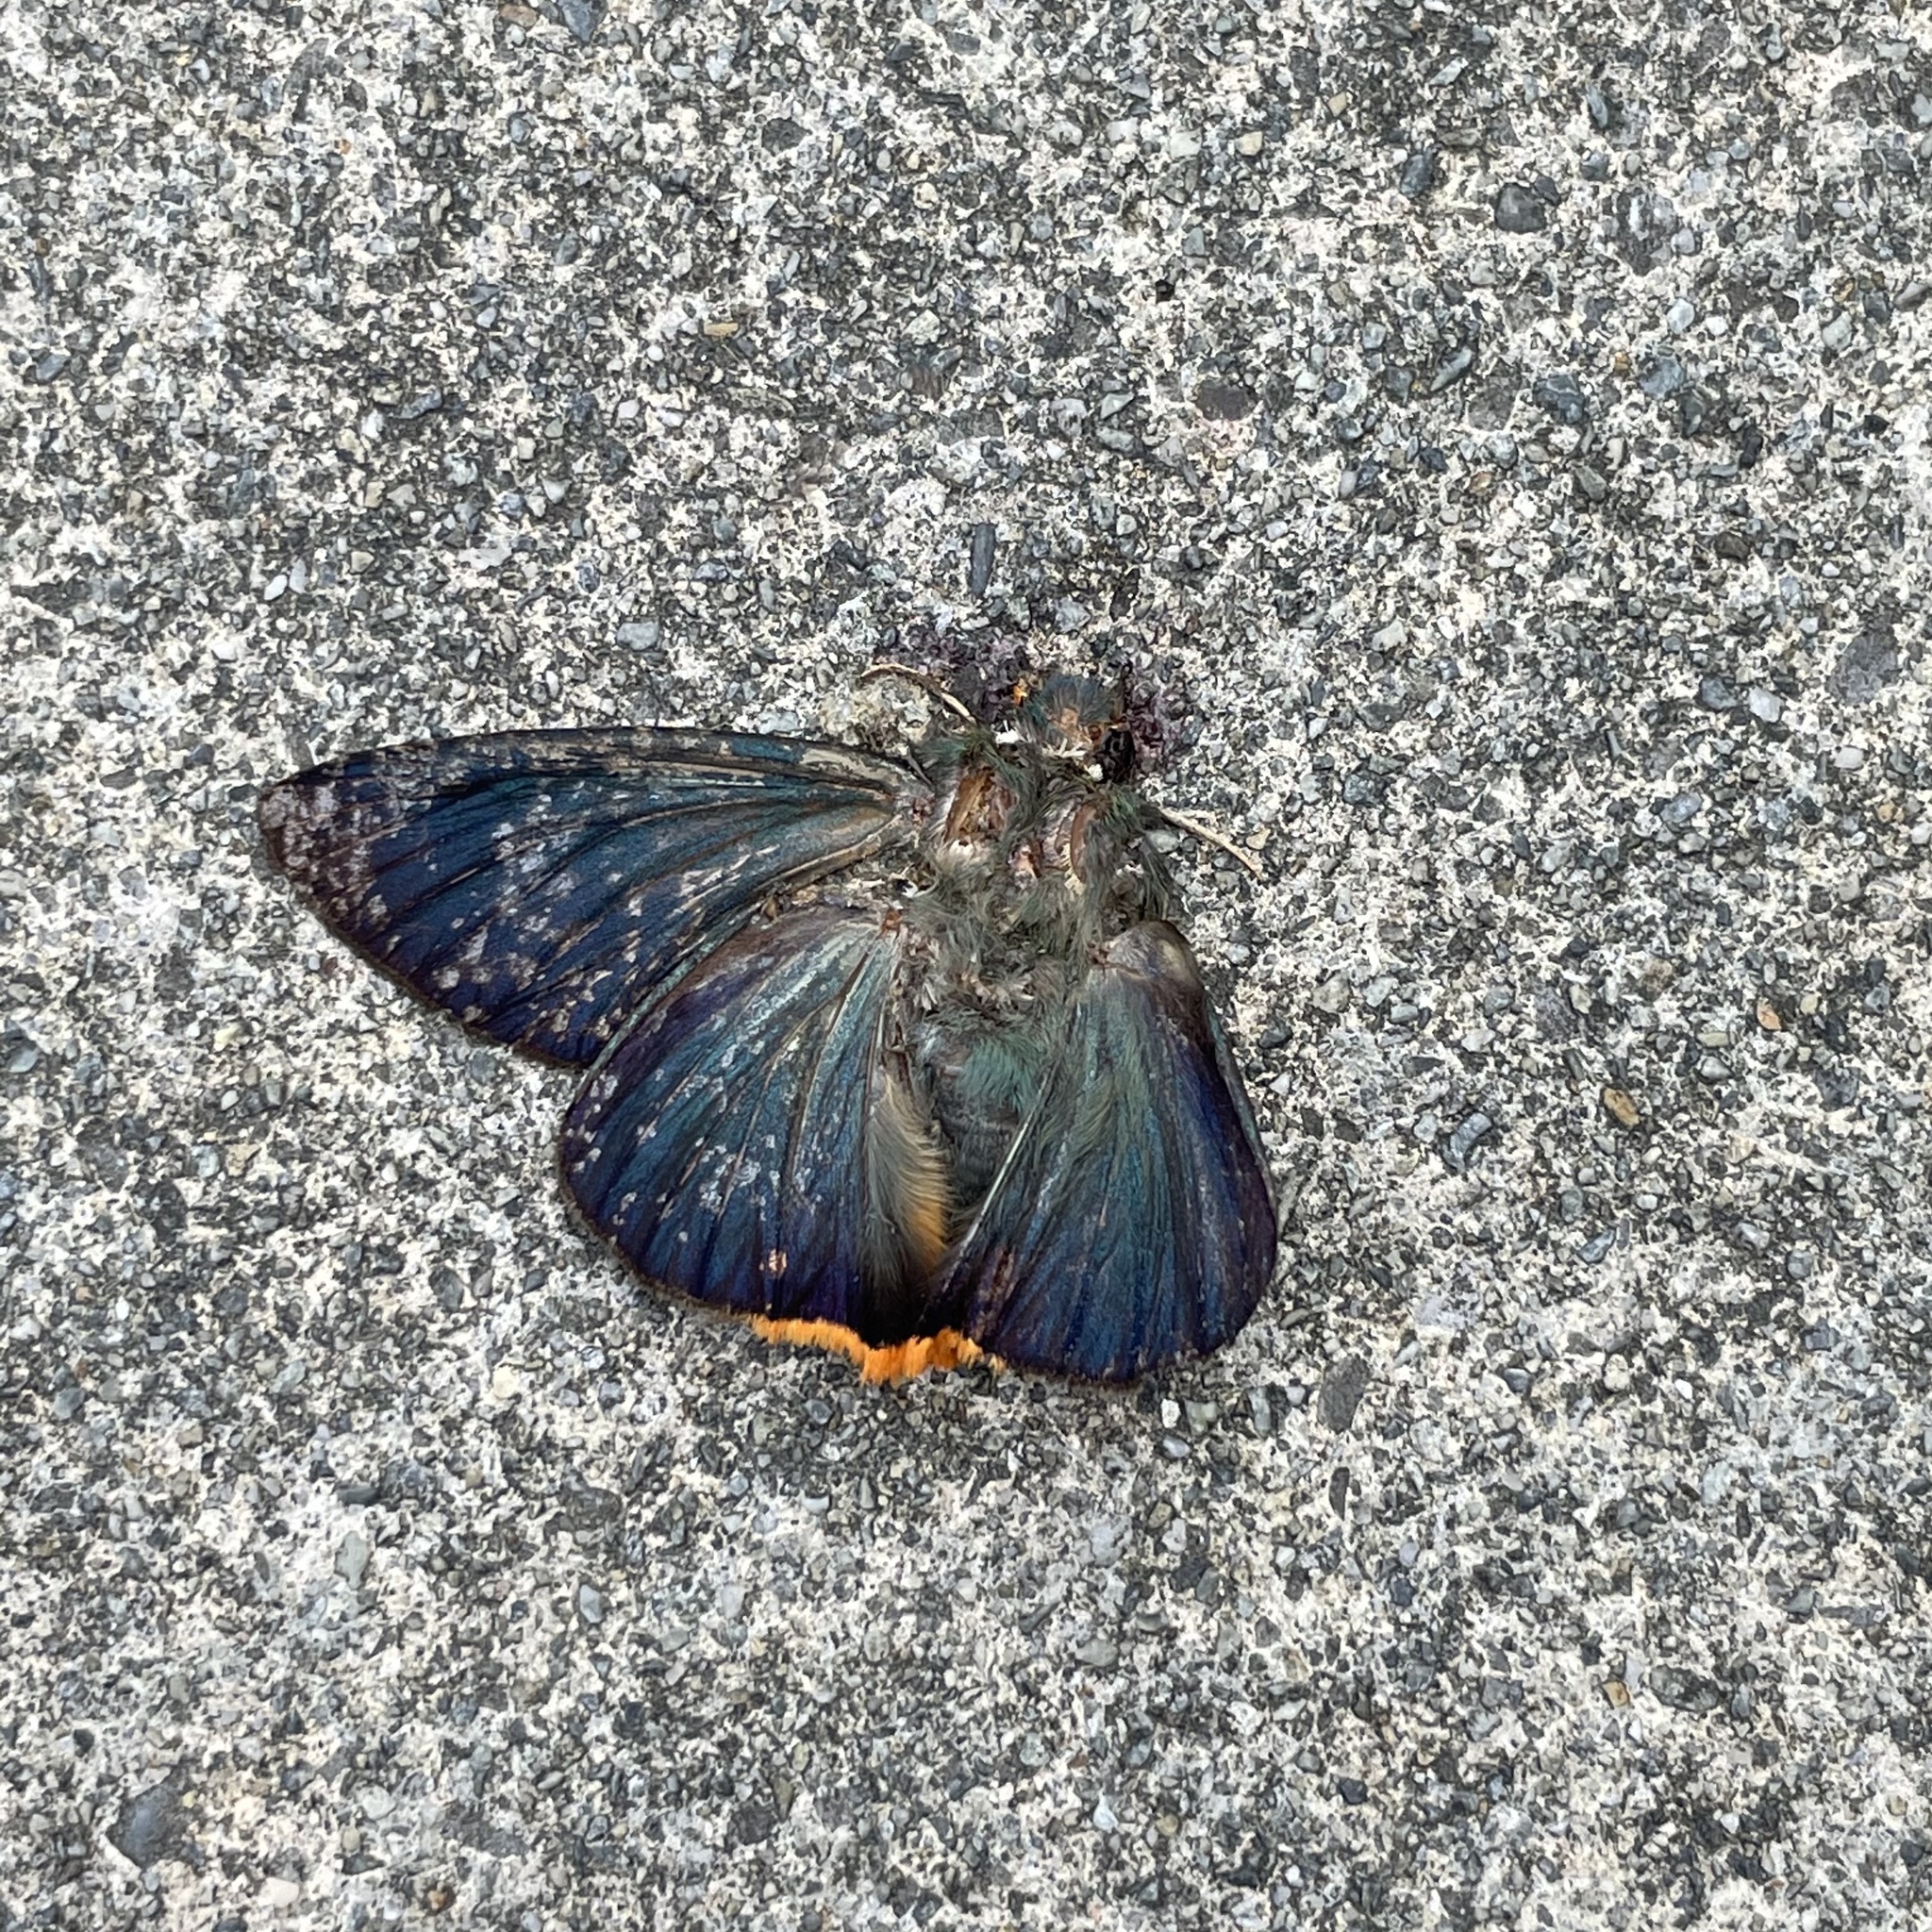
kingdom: Animalia
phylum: Arthropoda
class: Insecta
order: Lepidoptera
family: Hesperiidae
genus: Choaspes
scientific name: Choaspes benjaminii
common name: Indian awlking
